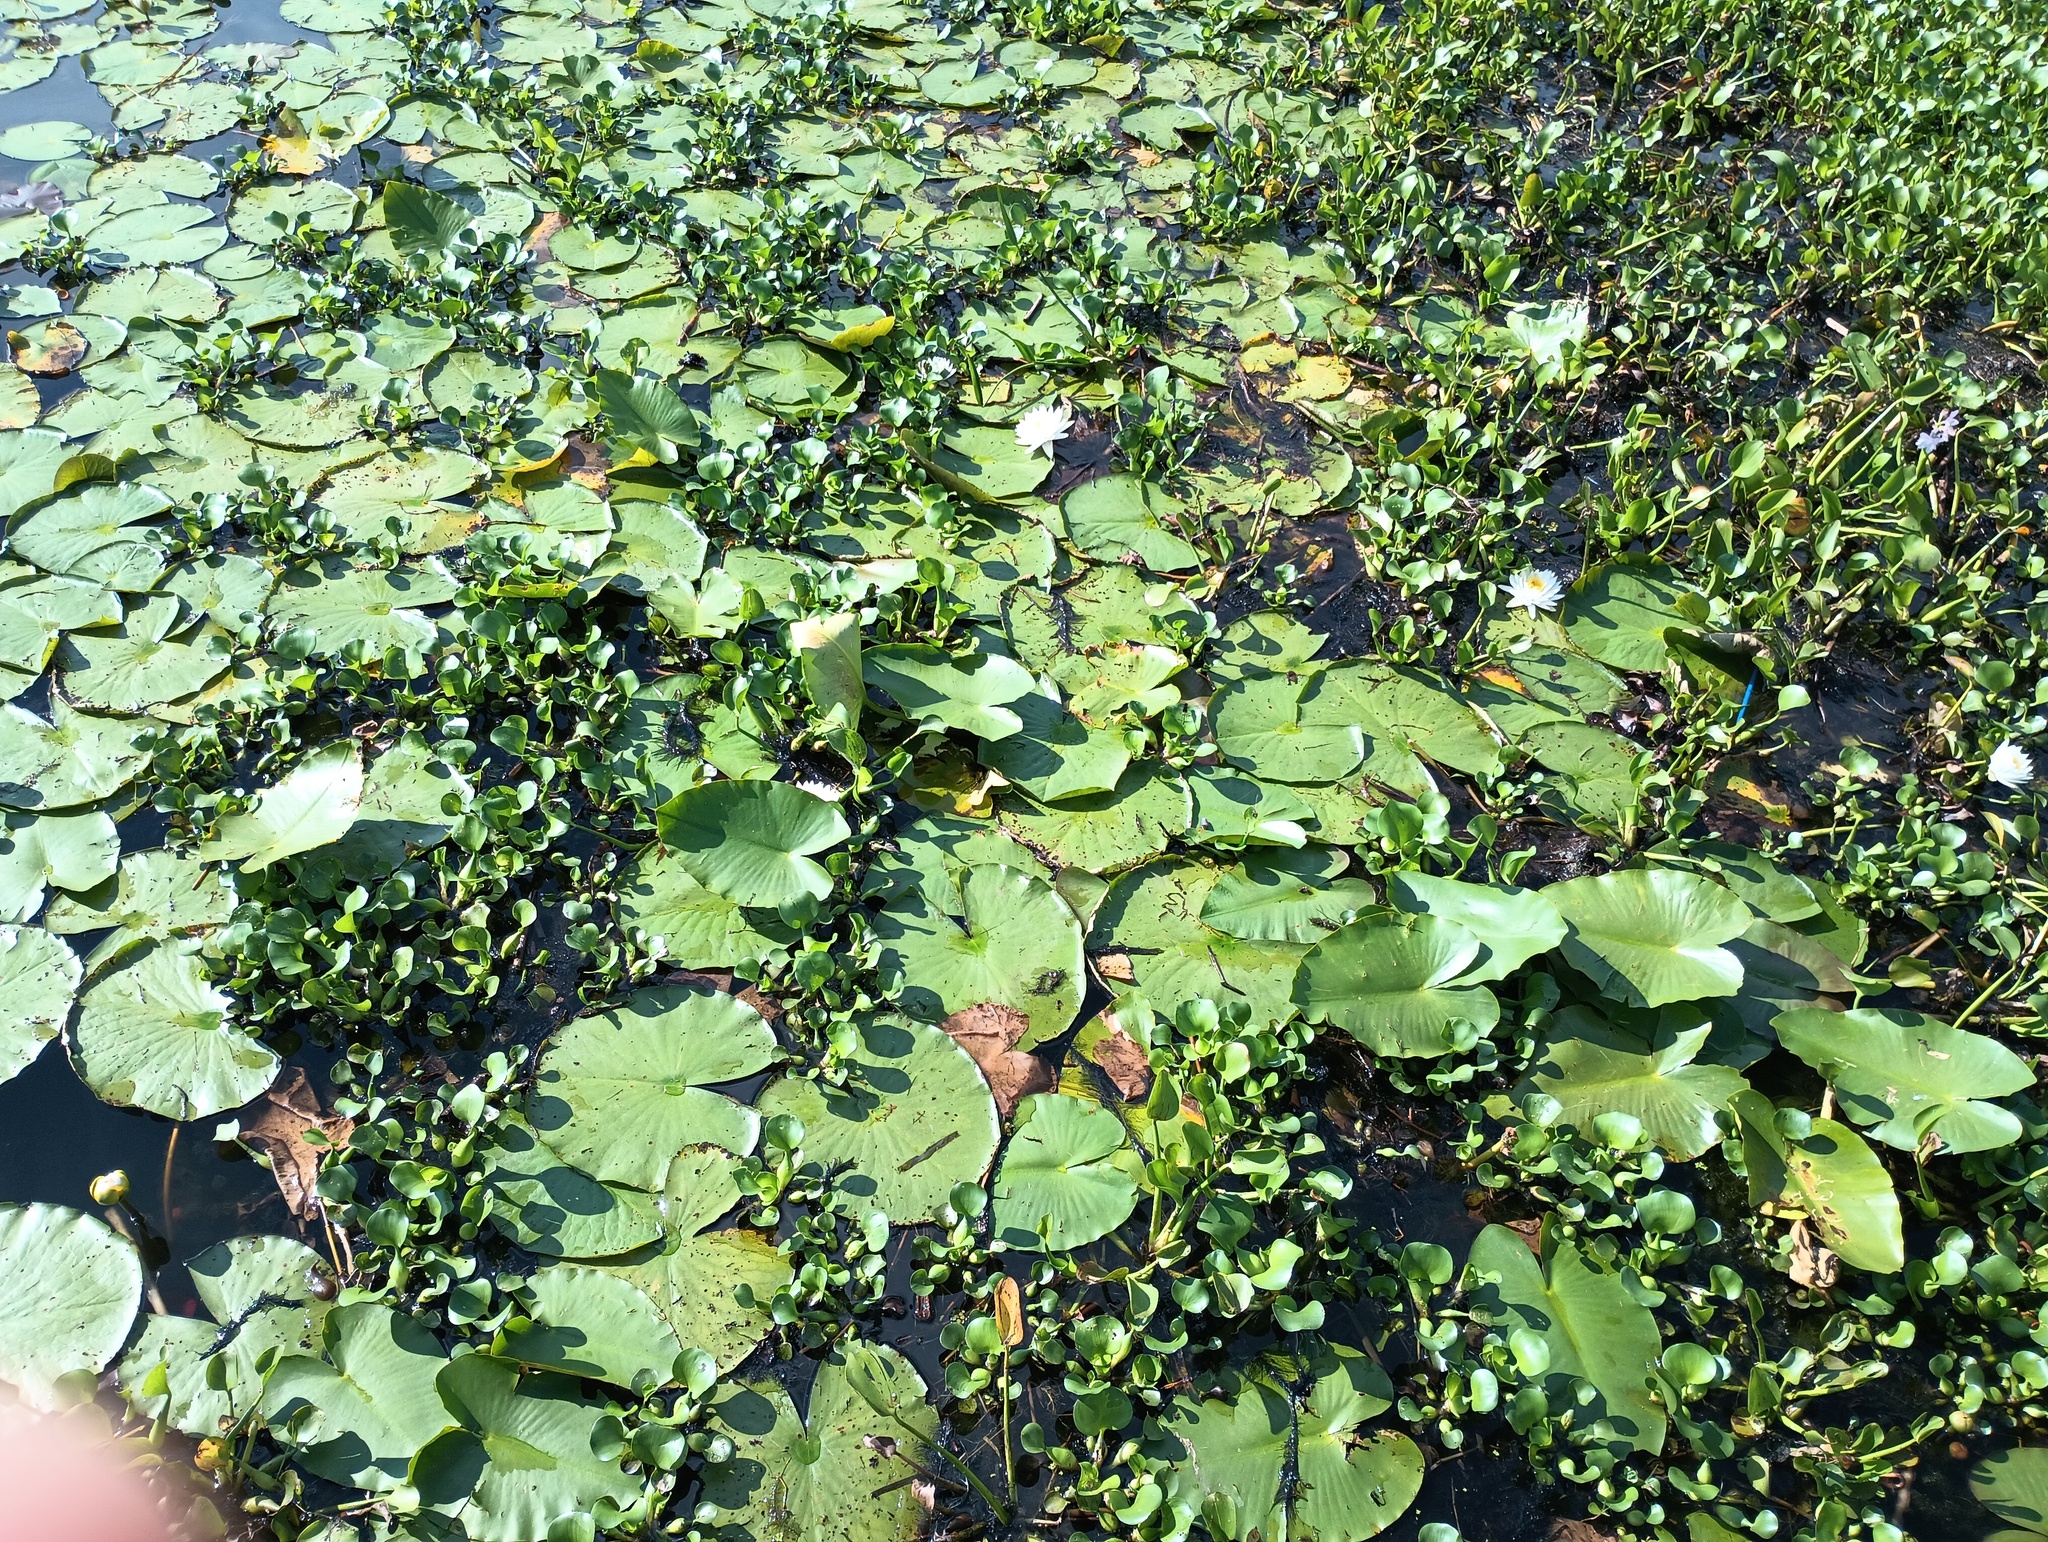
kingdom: Plantae
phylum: Tracheophyta
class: Magnoliopsida
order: Nymphaeales
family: Nymphaeaceae
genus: Nuphar
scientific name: Nuphar advena
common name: Spatter-dock
